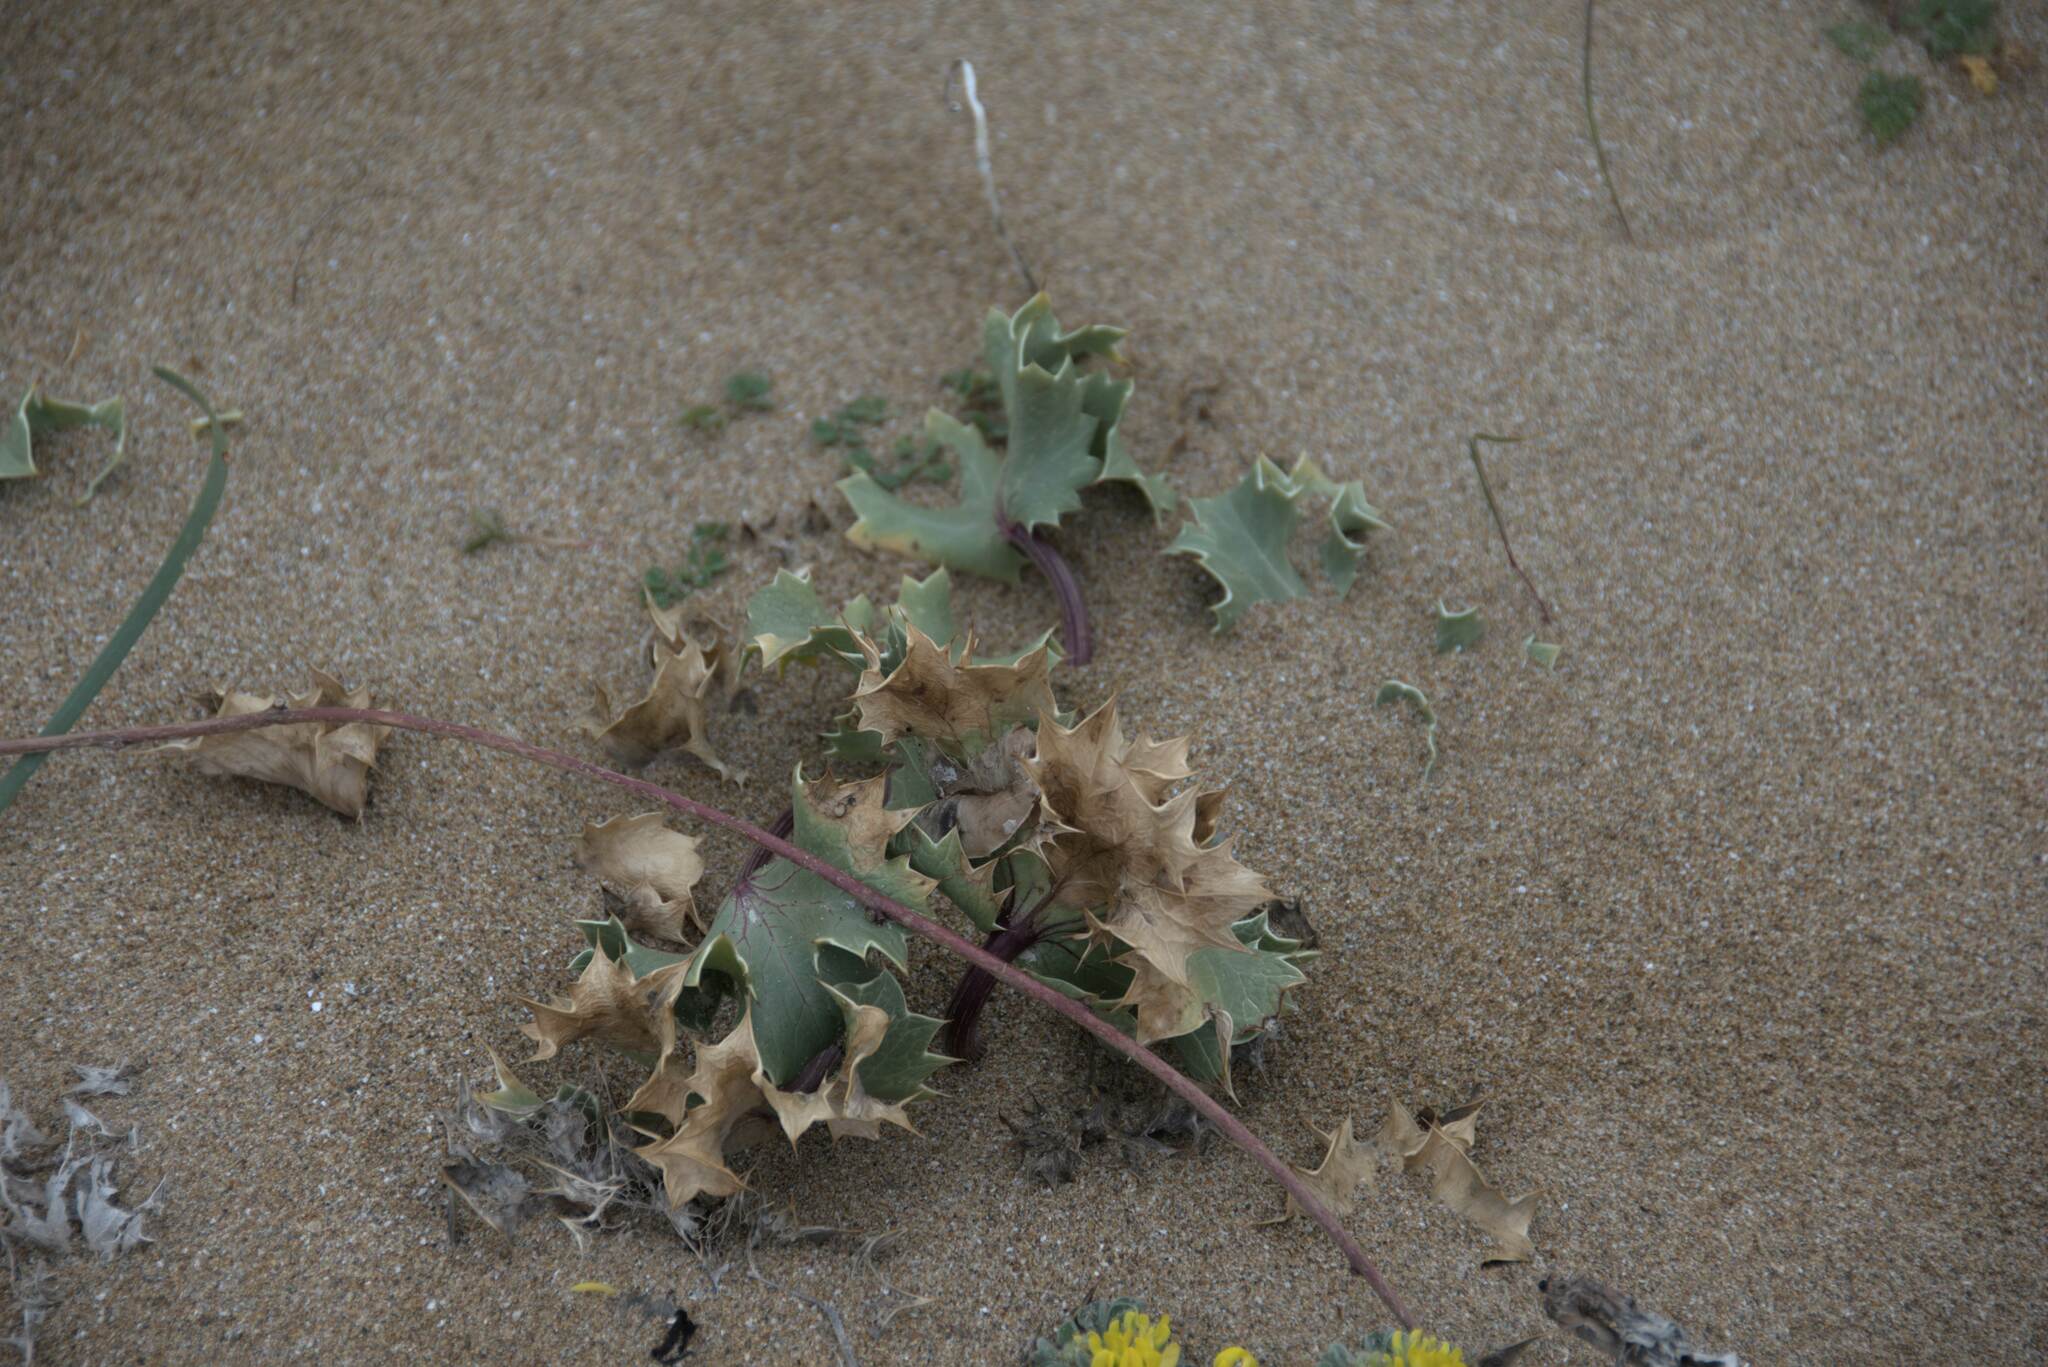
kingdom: Plantae
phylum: Tracheophyta
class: Magnoliopsida
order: Apiales
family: Apiaceae
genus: Eryngium
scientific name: Eryngium maritimum
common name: Sea-holly
